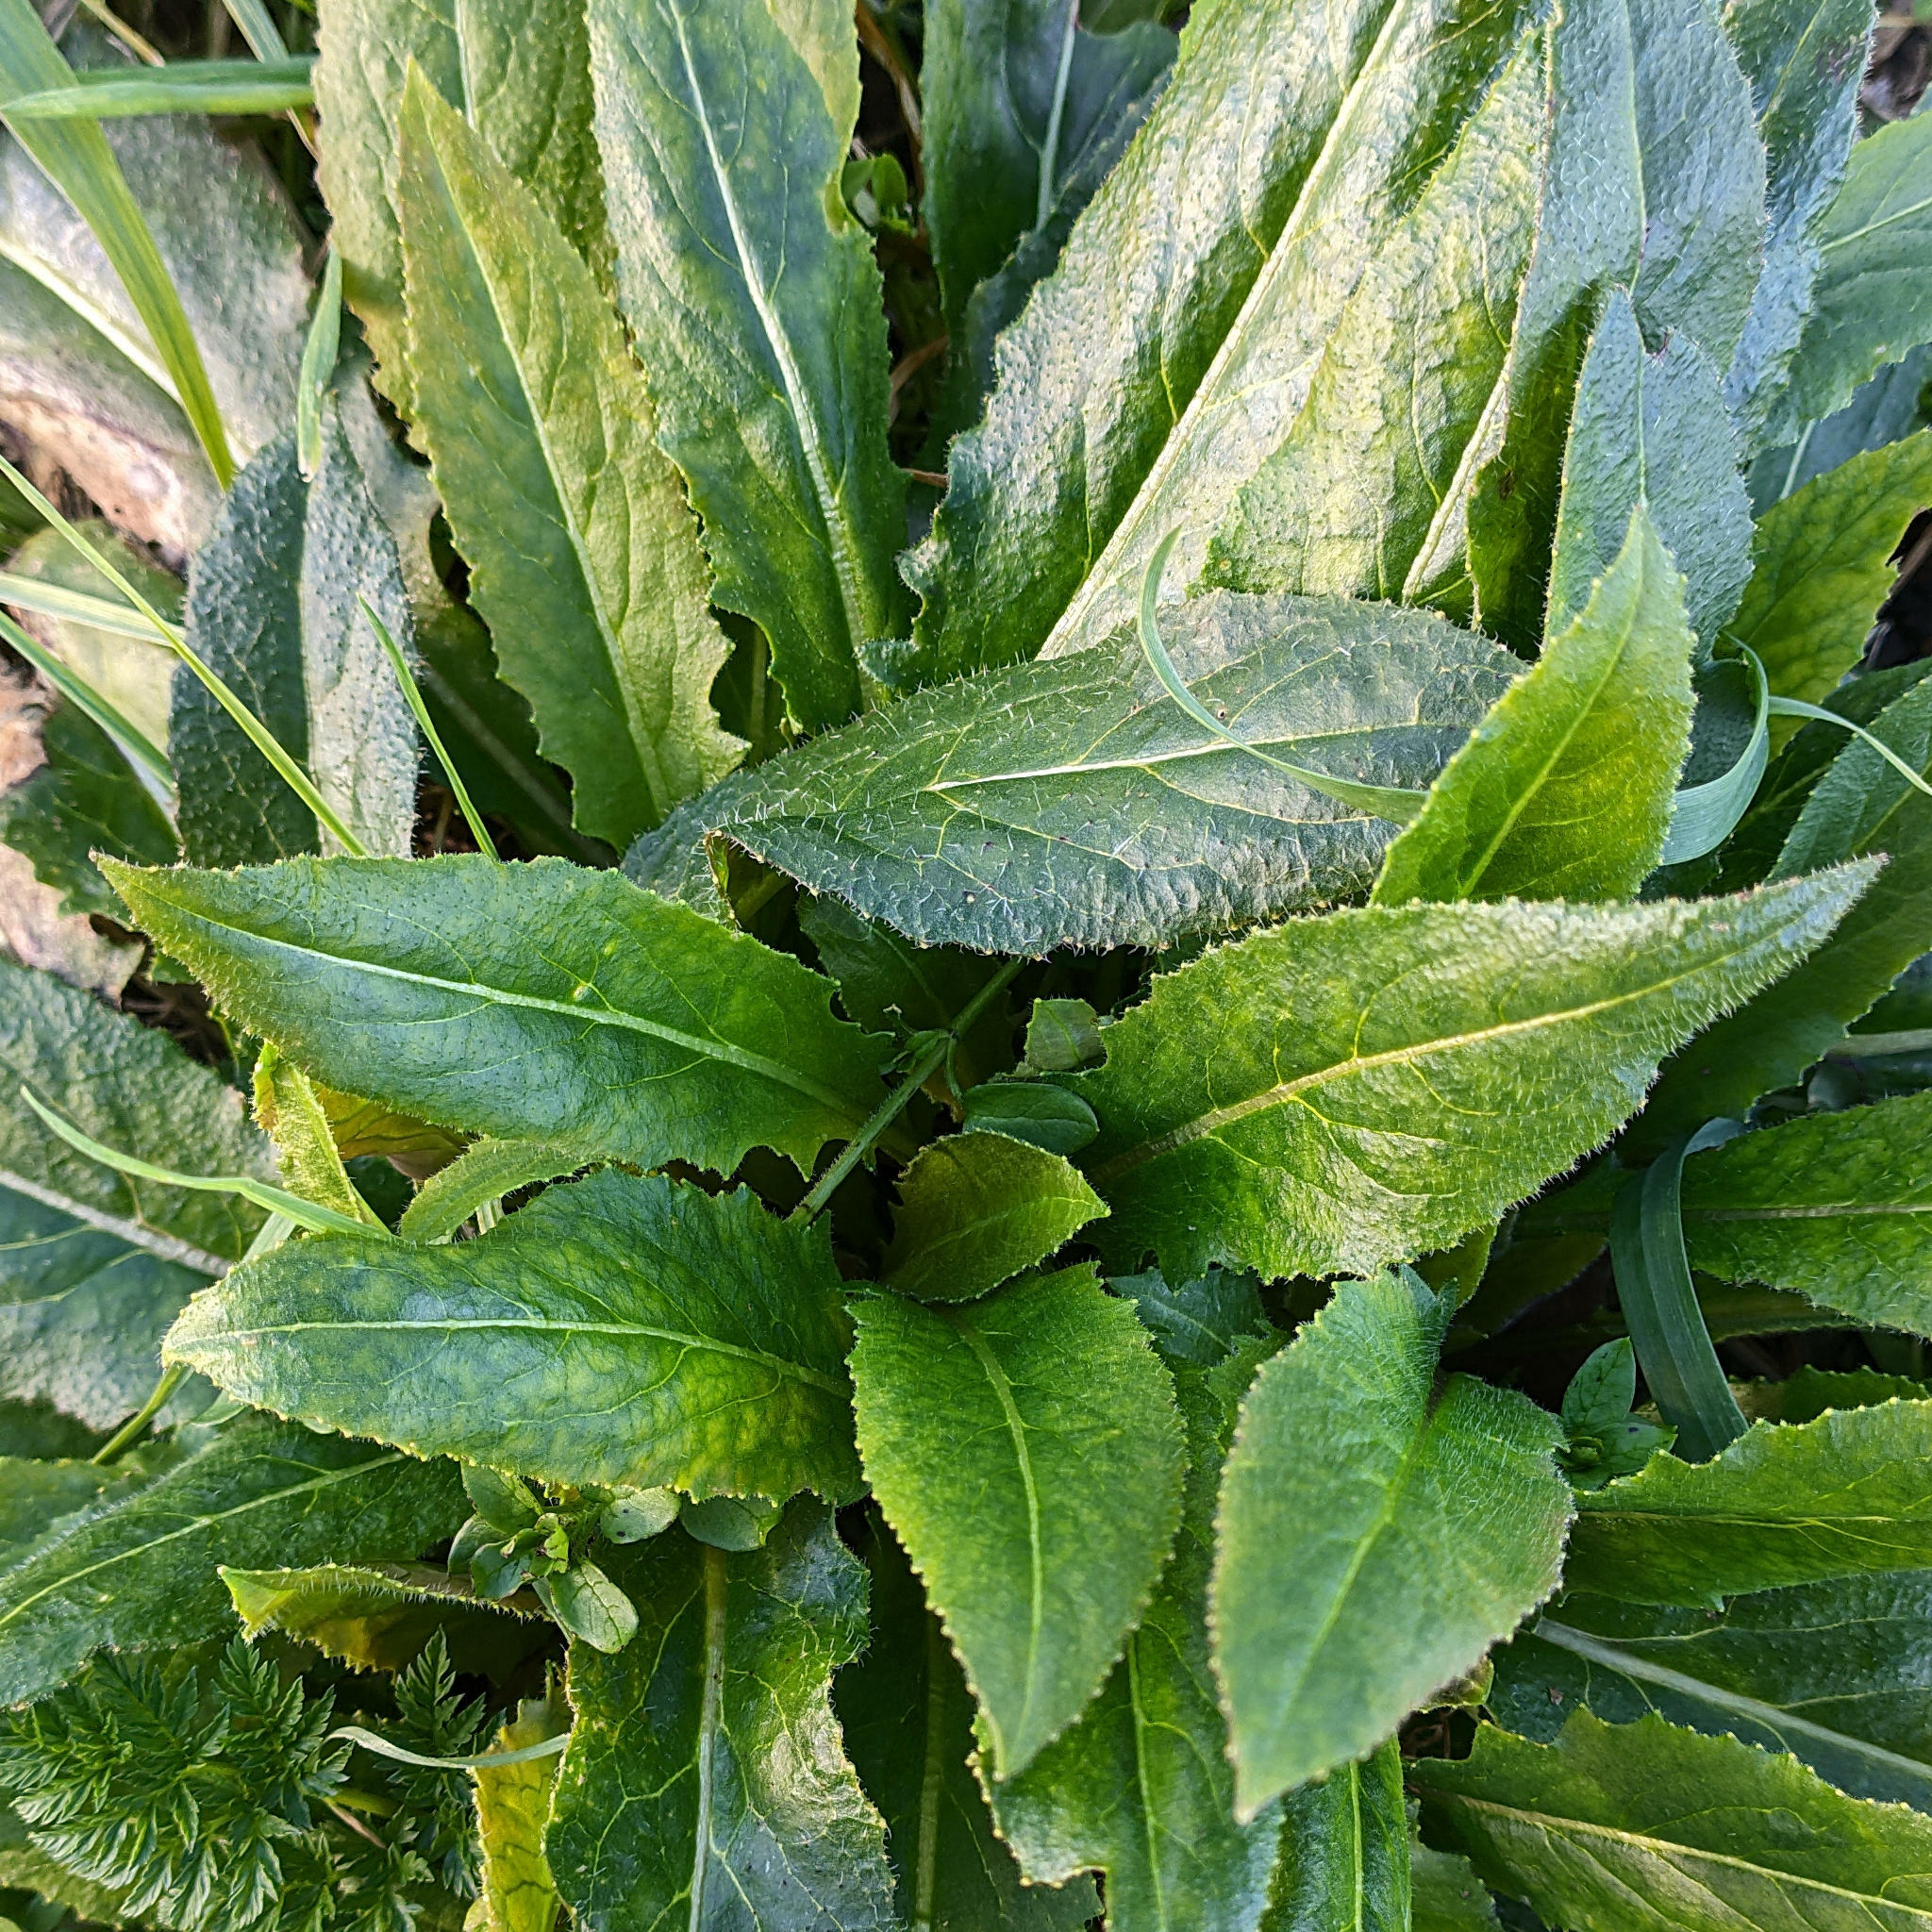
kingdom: Plantae
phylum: Tracheophyta
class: Magnoliopsida
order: Brassicales
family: Brassicaceae
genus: Hesperis
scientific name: Hesperis matronalis
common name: Dame's-violet
